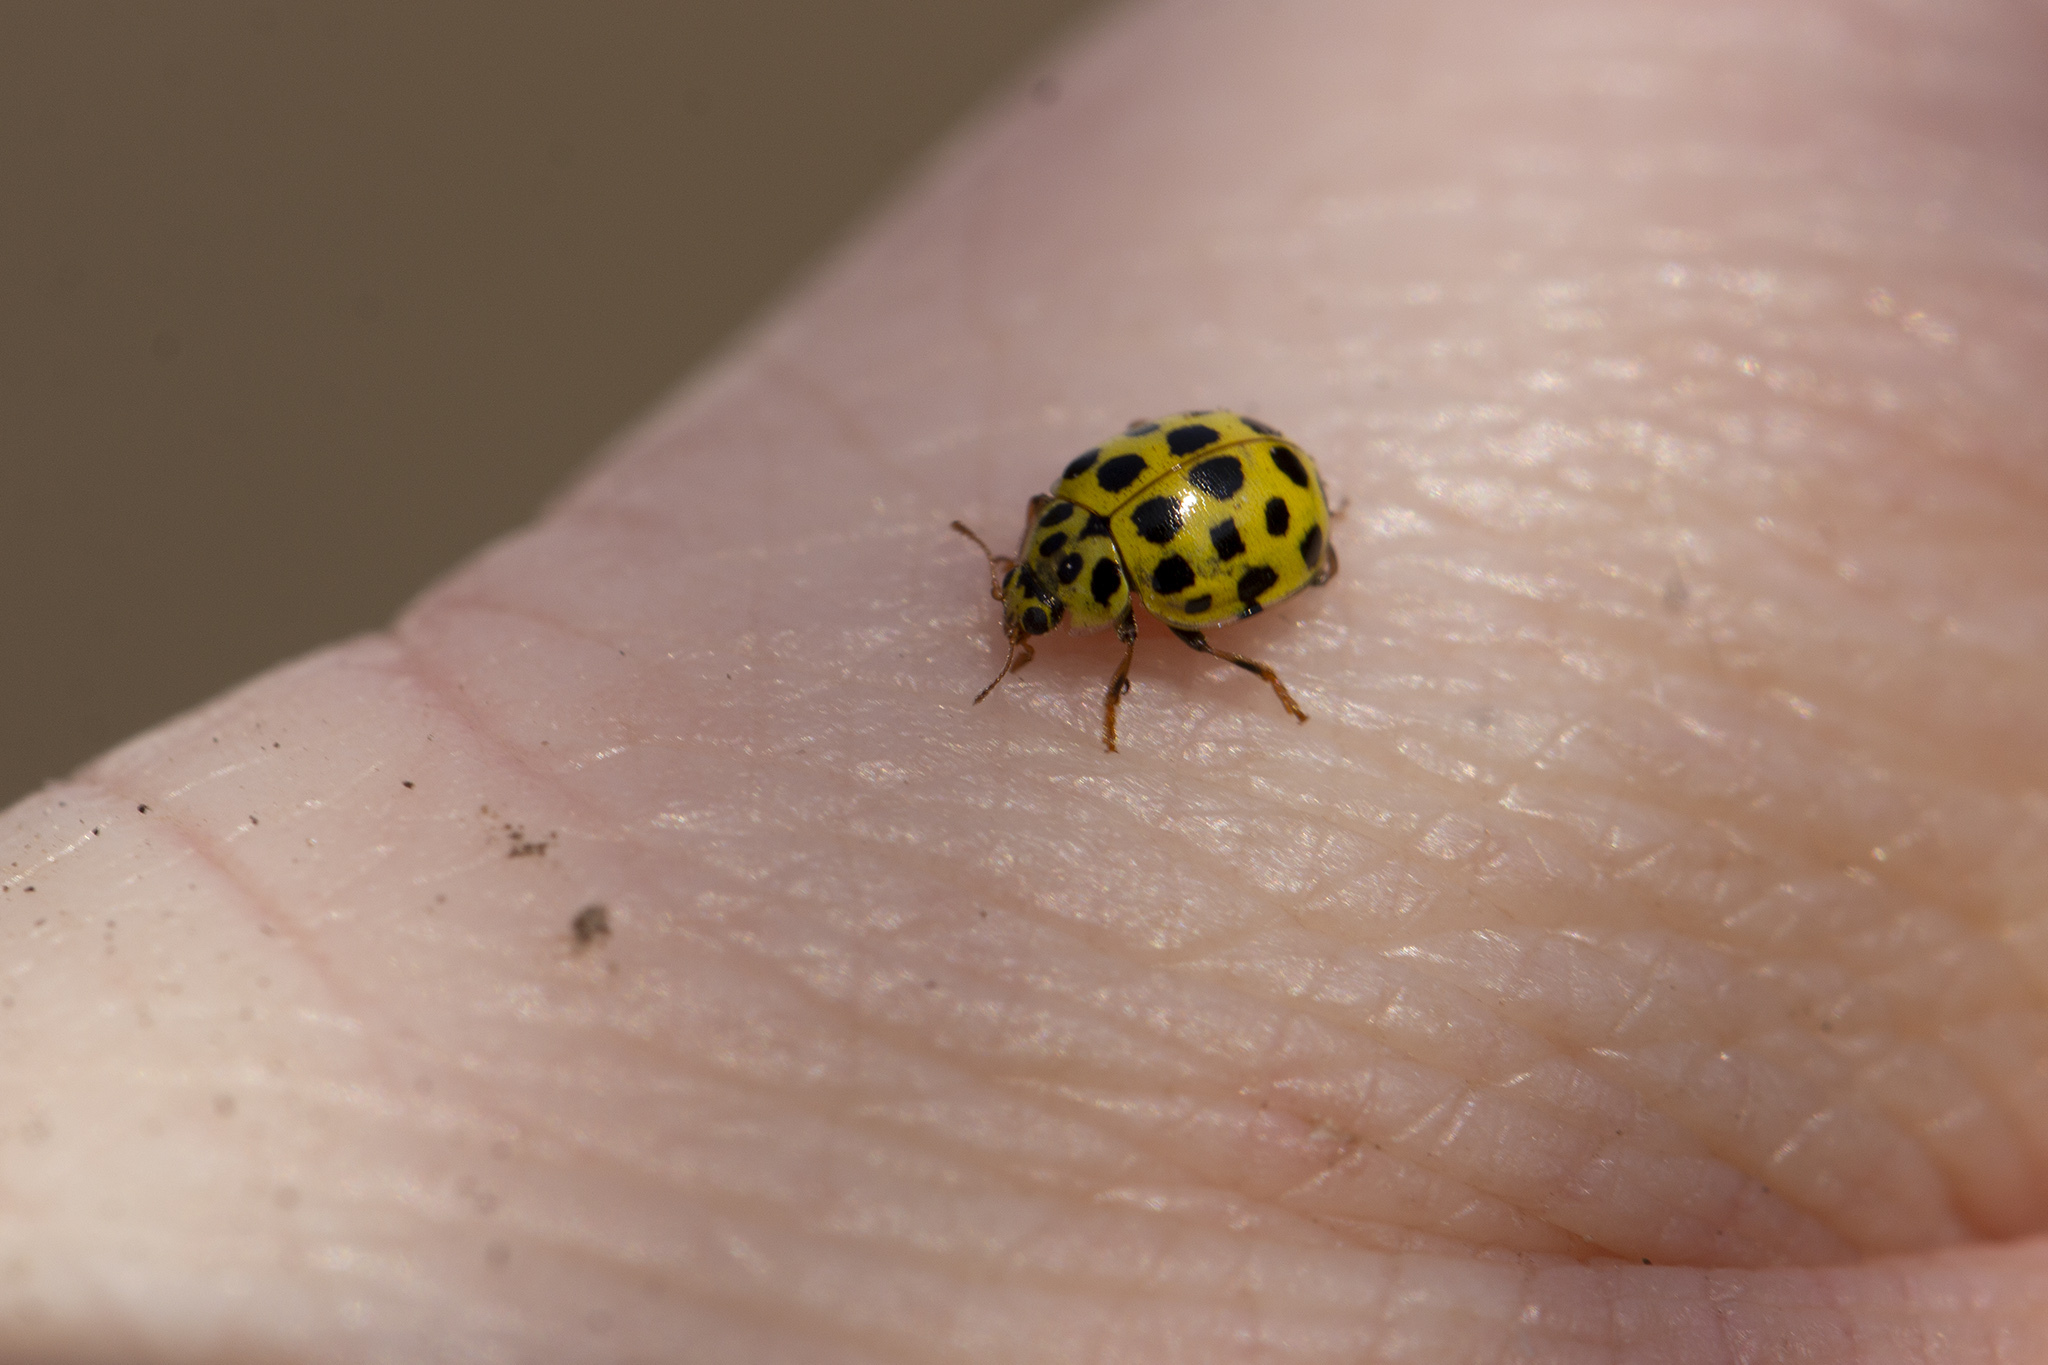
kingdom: Animalia
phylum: Arthropoda
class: Insecta
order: Coleoptera
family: Coccinellidae
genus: Psyllobora
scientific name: Psyllobora vigintiduopunctata
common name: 22-spot ladybird
